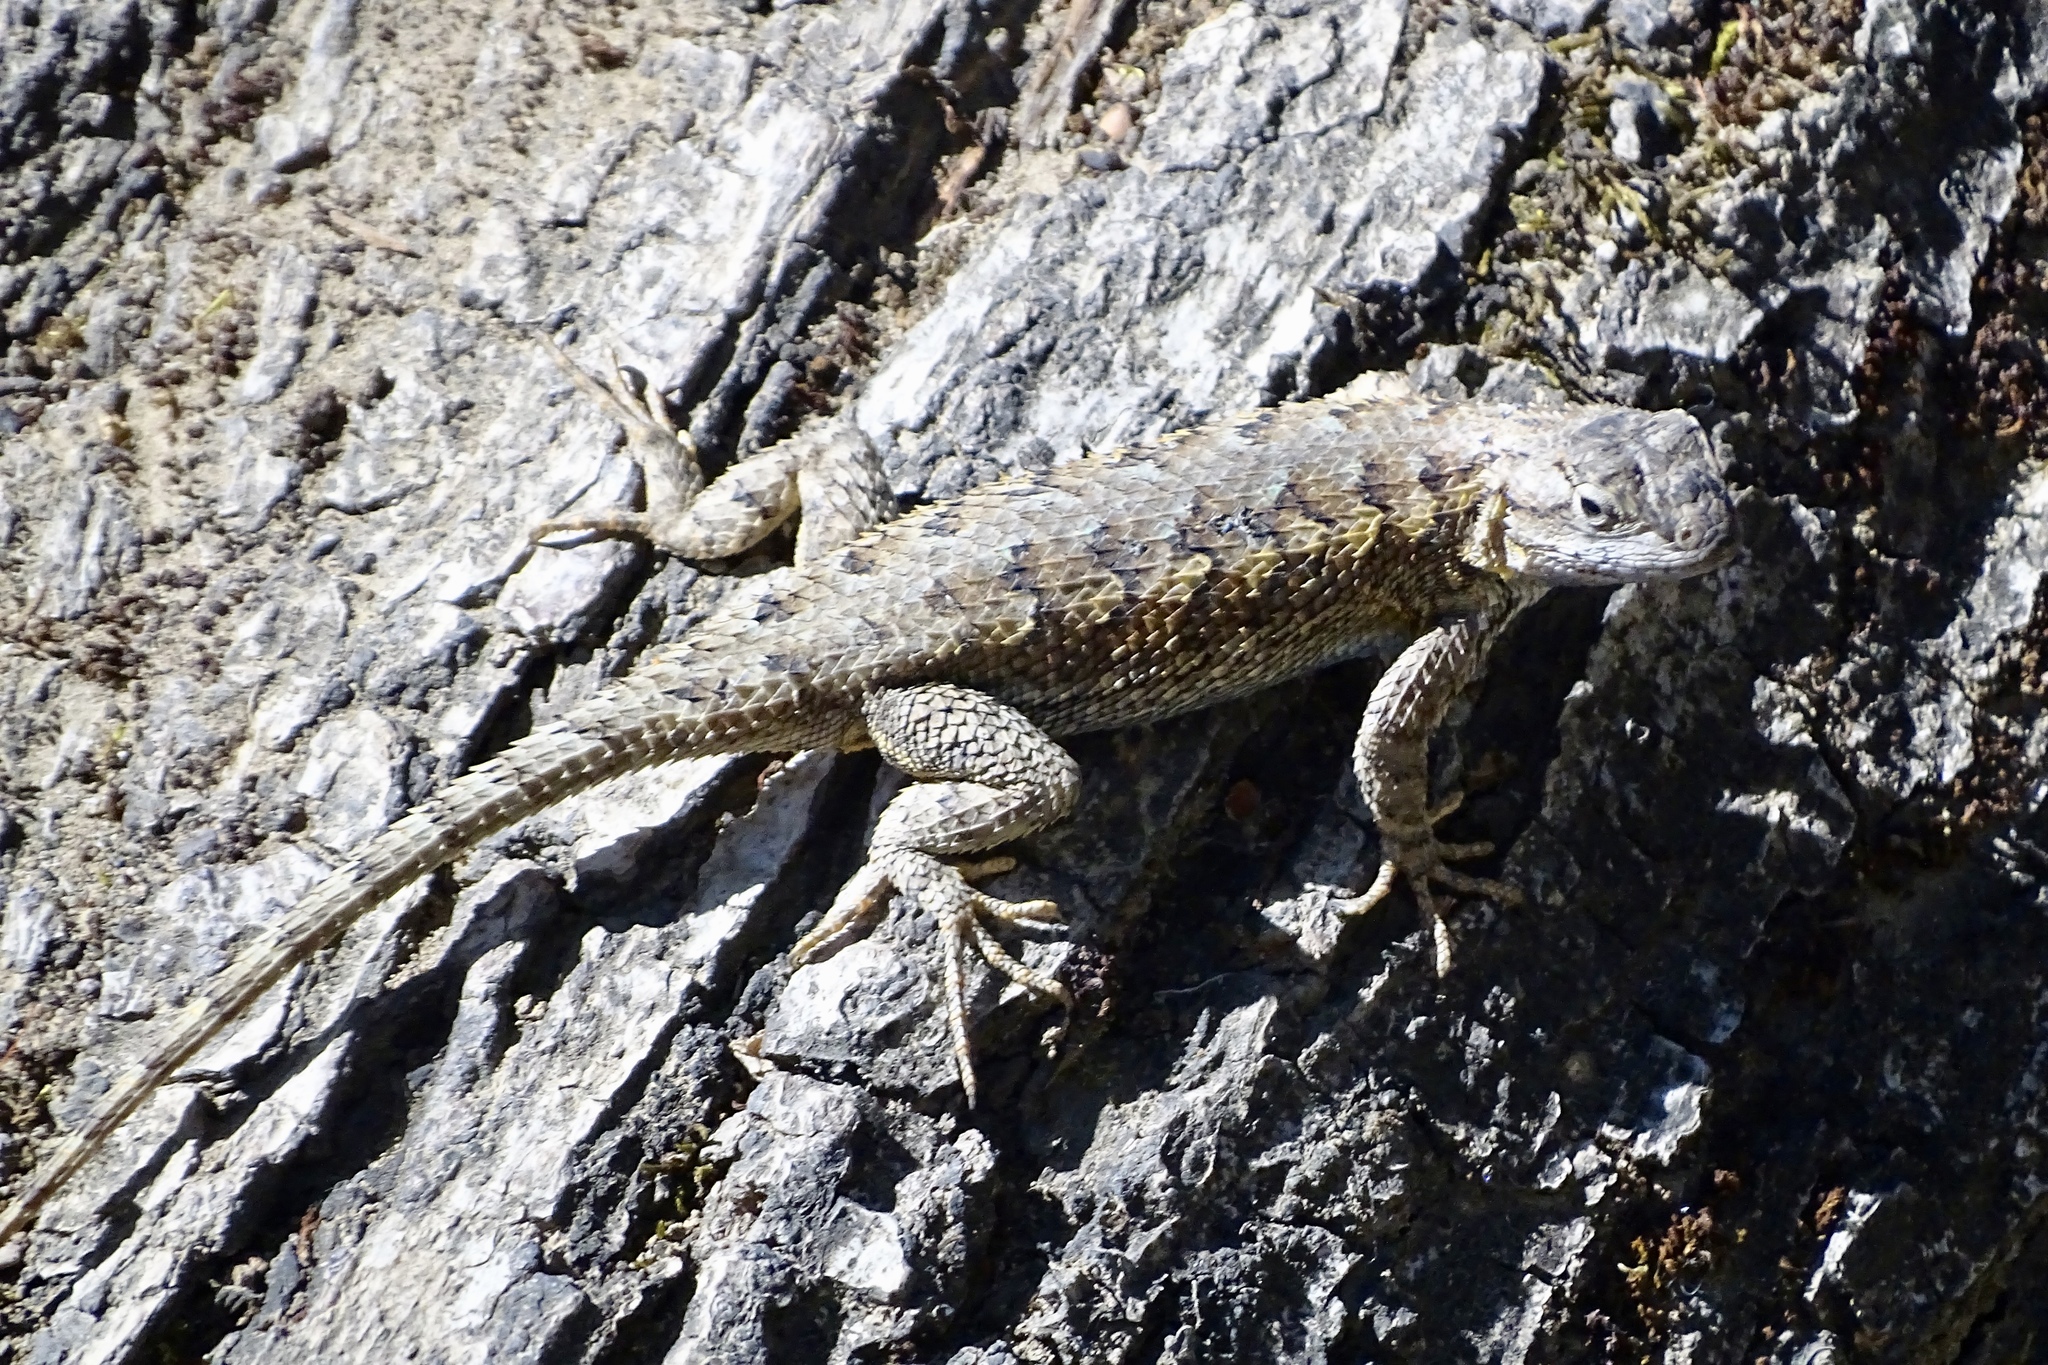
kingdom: Animalia
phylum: Chordata
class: Squamata
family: Phrynosomatidae
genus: Sceloporus
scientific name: Sceloporus occidentalis
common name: Western fence lizard
